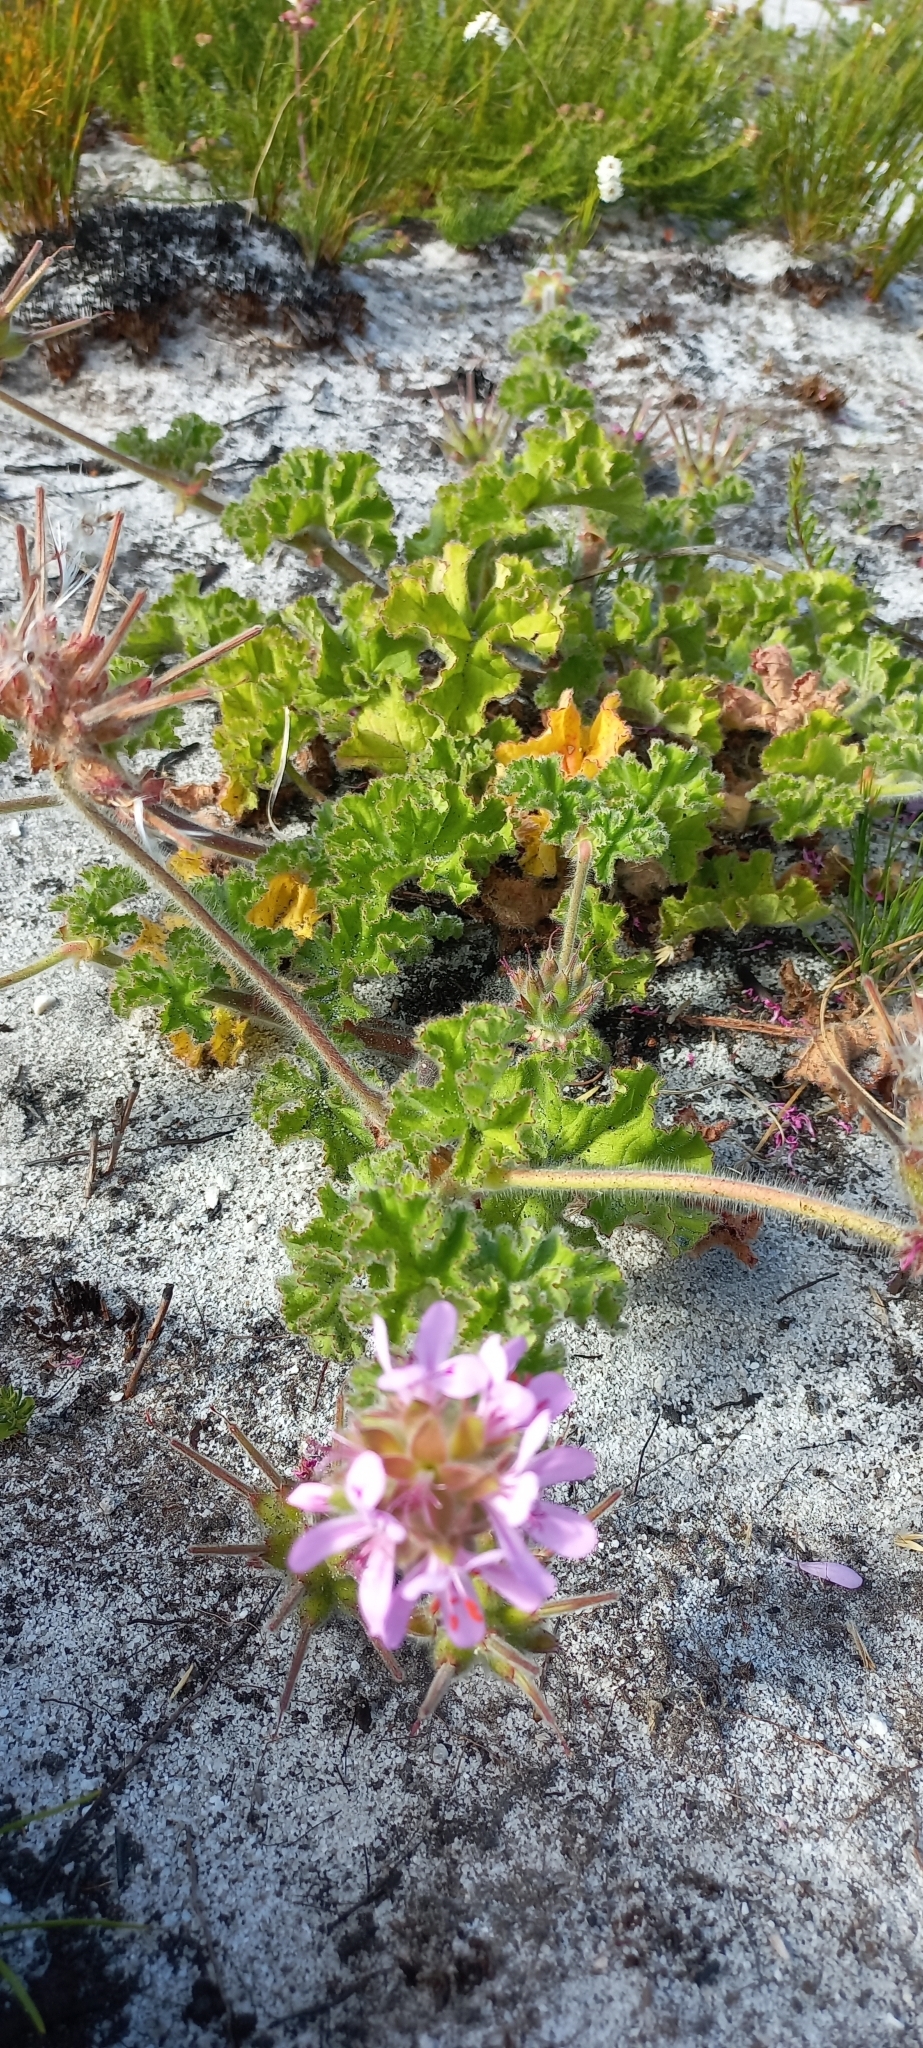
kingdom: Plantae
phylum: Tracheophyta
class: Magnoliopsida
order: Geraniales
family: Geraniaceae
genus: Pelargonium
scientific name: Pelargonium capitatum
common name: Rose scented geranium
